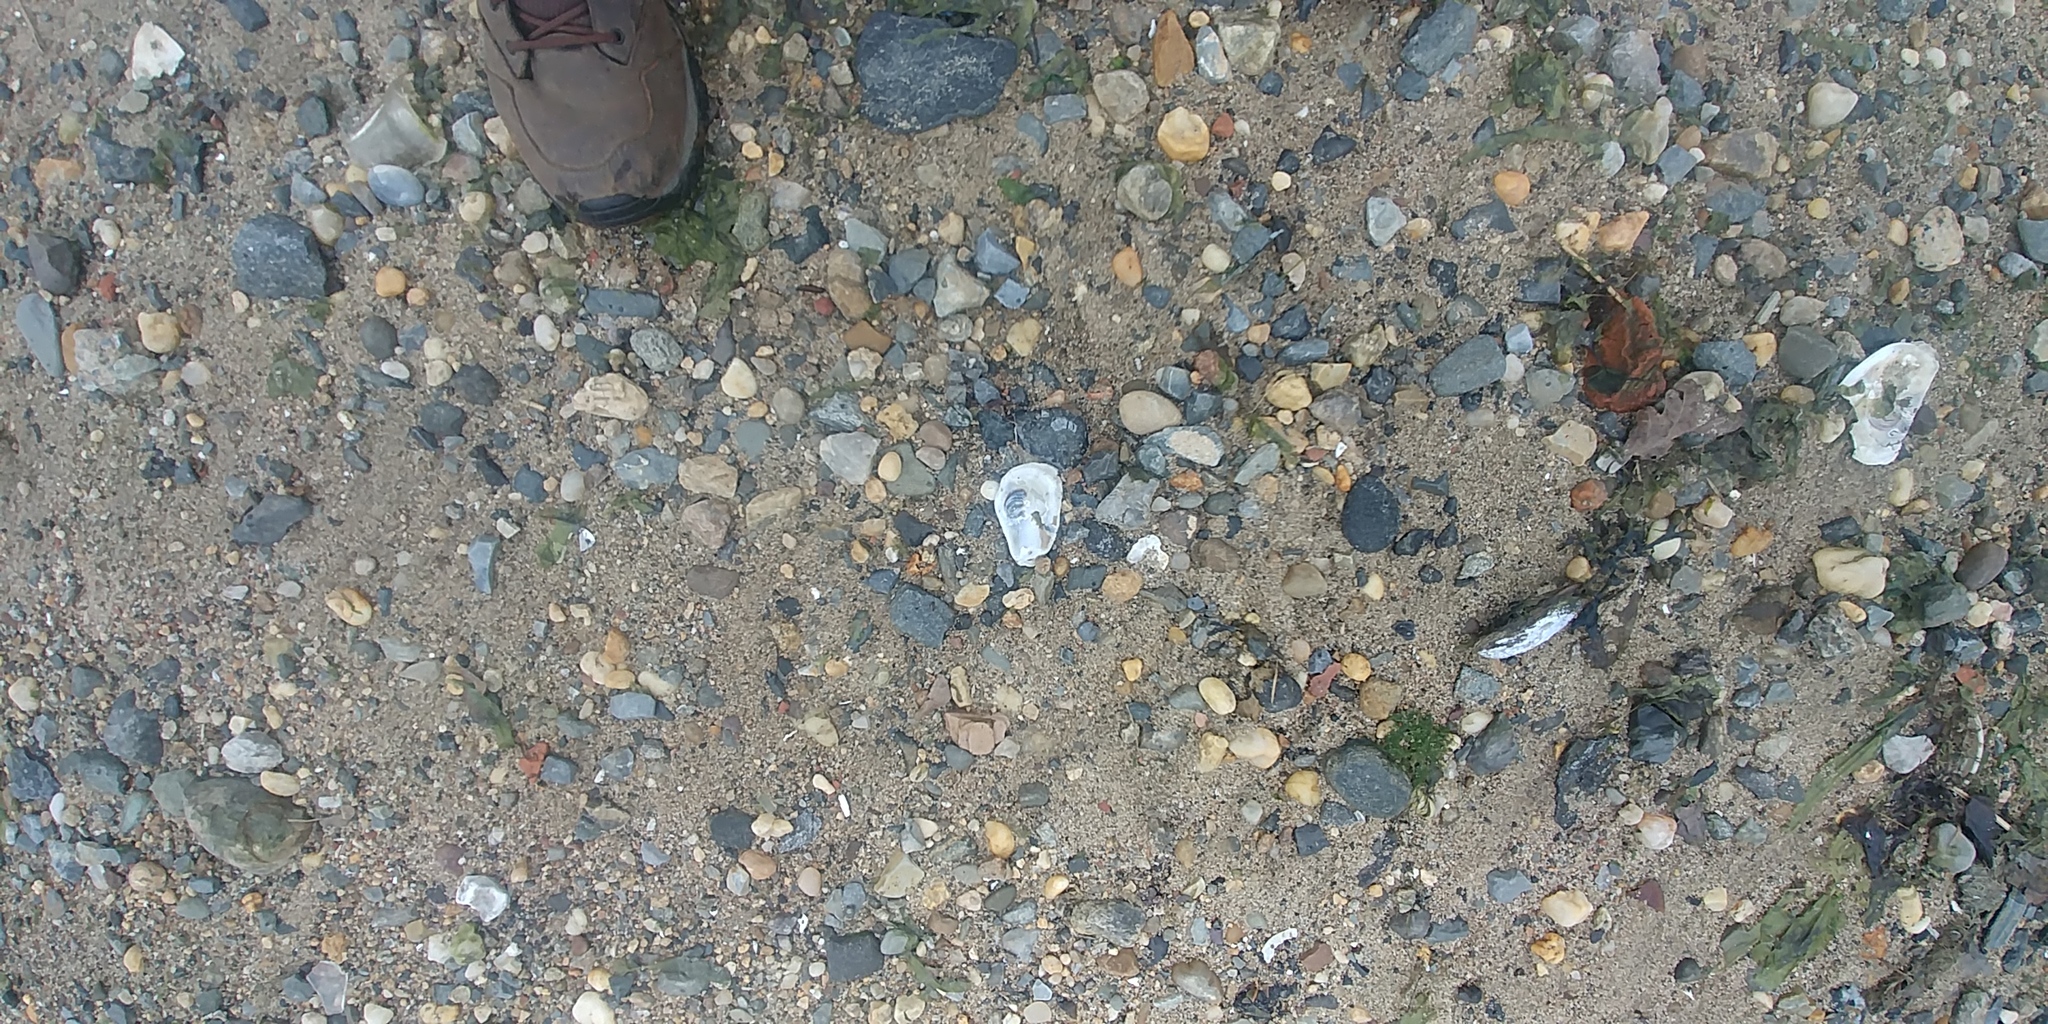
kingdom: Animalia
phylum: Mollusca
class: Bivalvia
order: Ostreida
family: Ostreidae
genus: Crassostrea
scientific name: Crassostrea virginica
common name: American oyster
